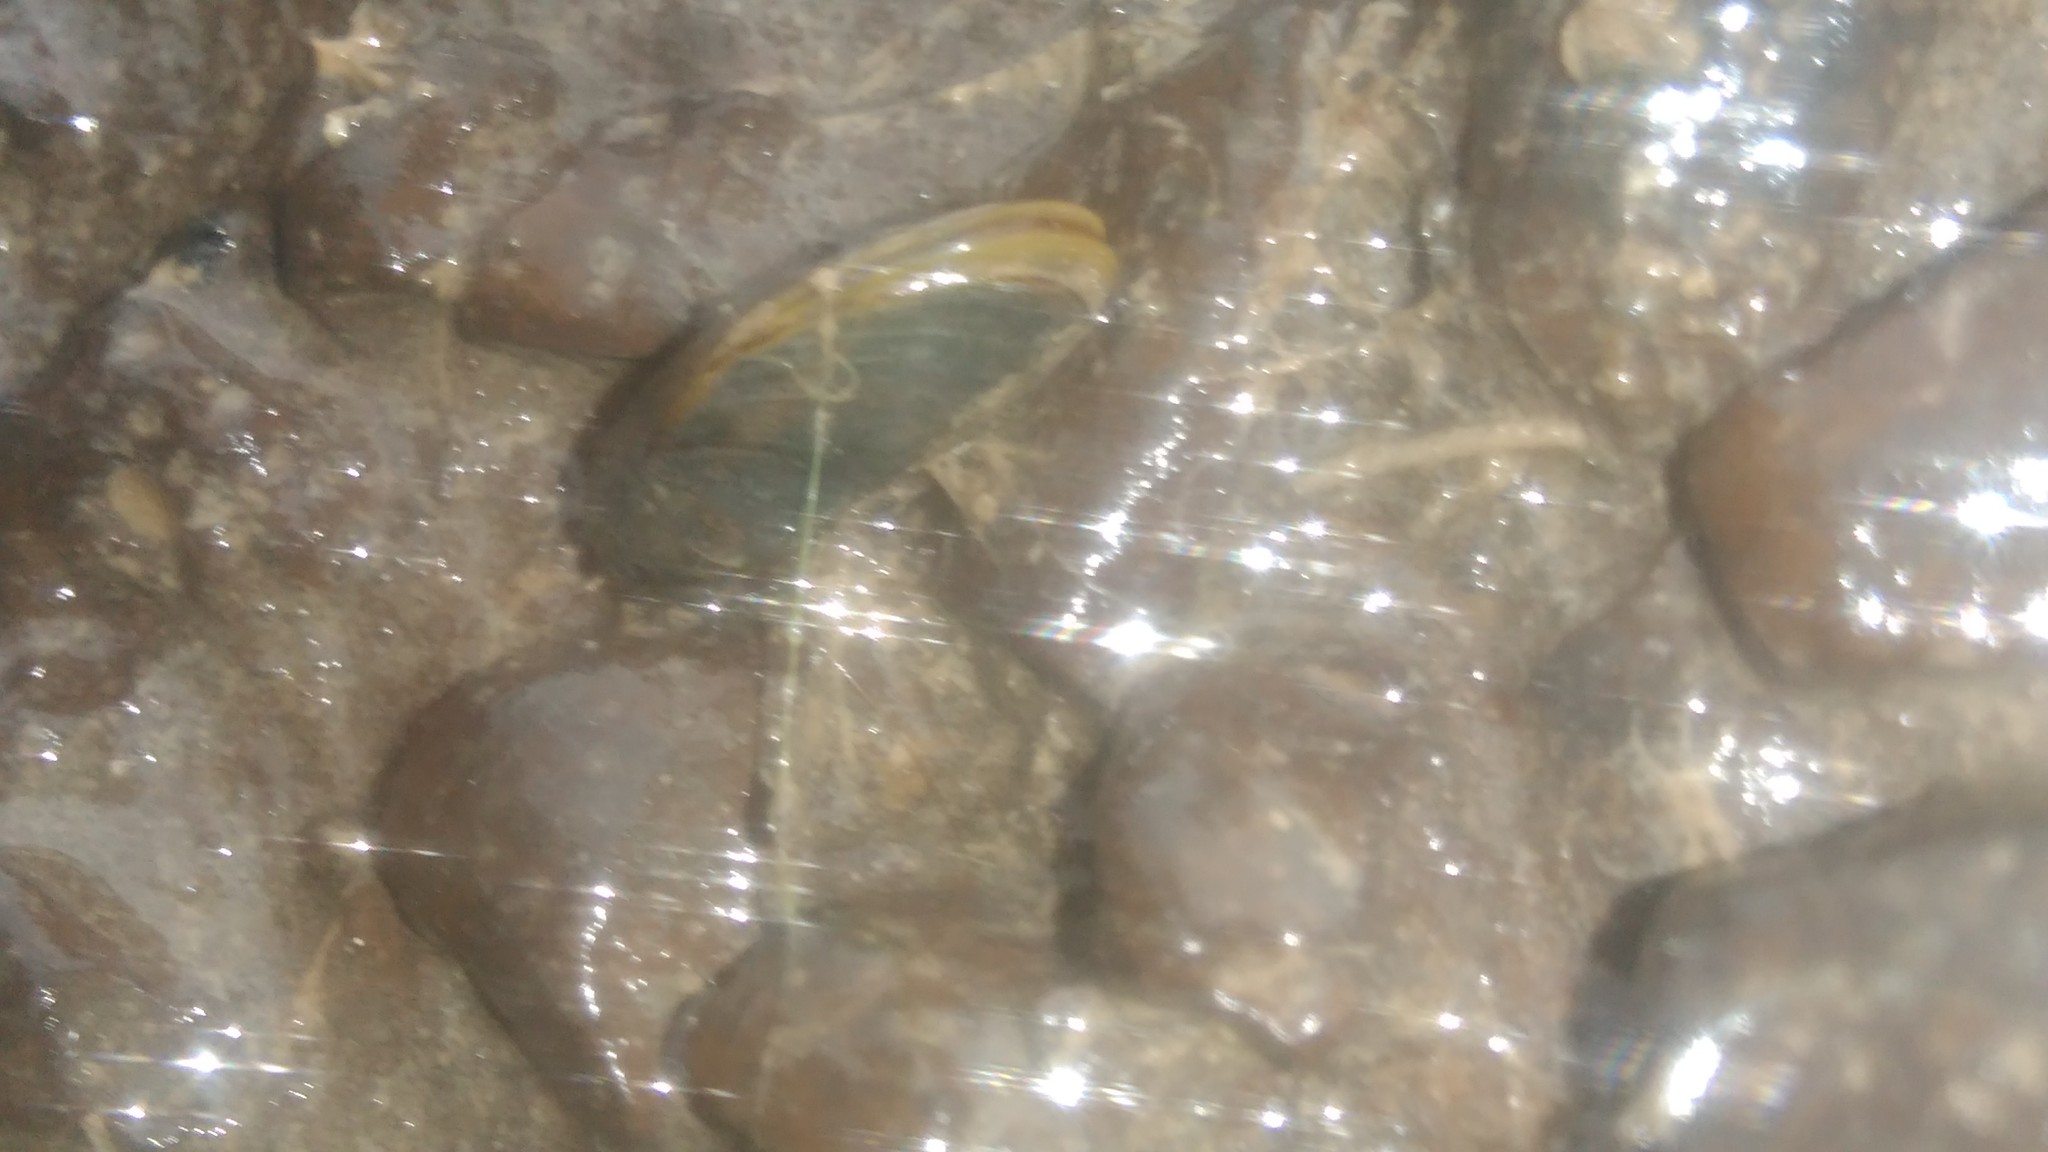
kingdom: Animalia
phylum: Mollusca
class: Bivalvia
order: Mytilida
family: Mytilidae
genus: Limnoperna
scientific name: Limnoperna fortunei
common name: Golden mussel
